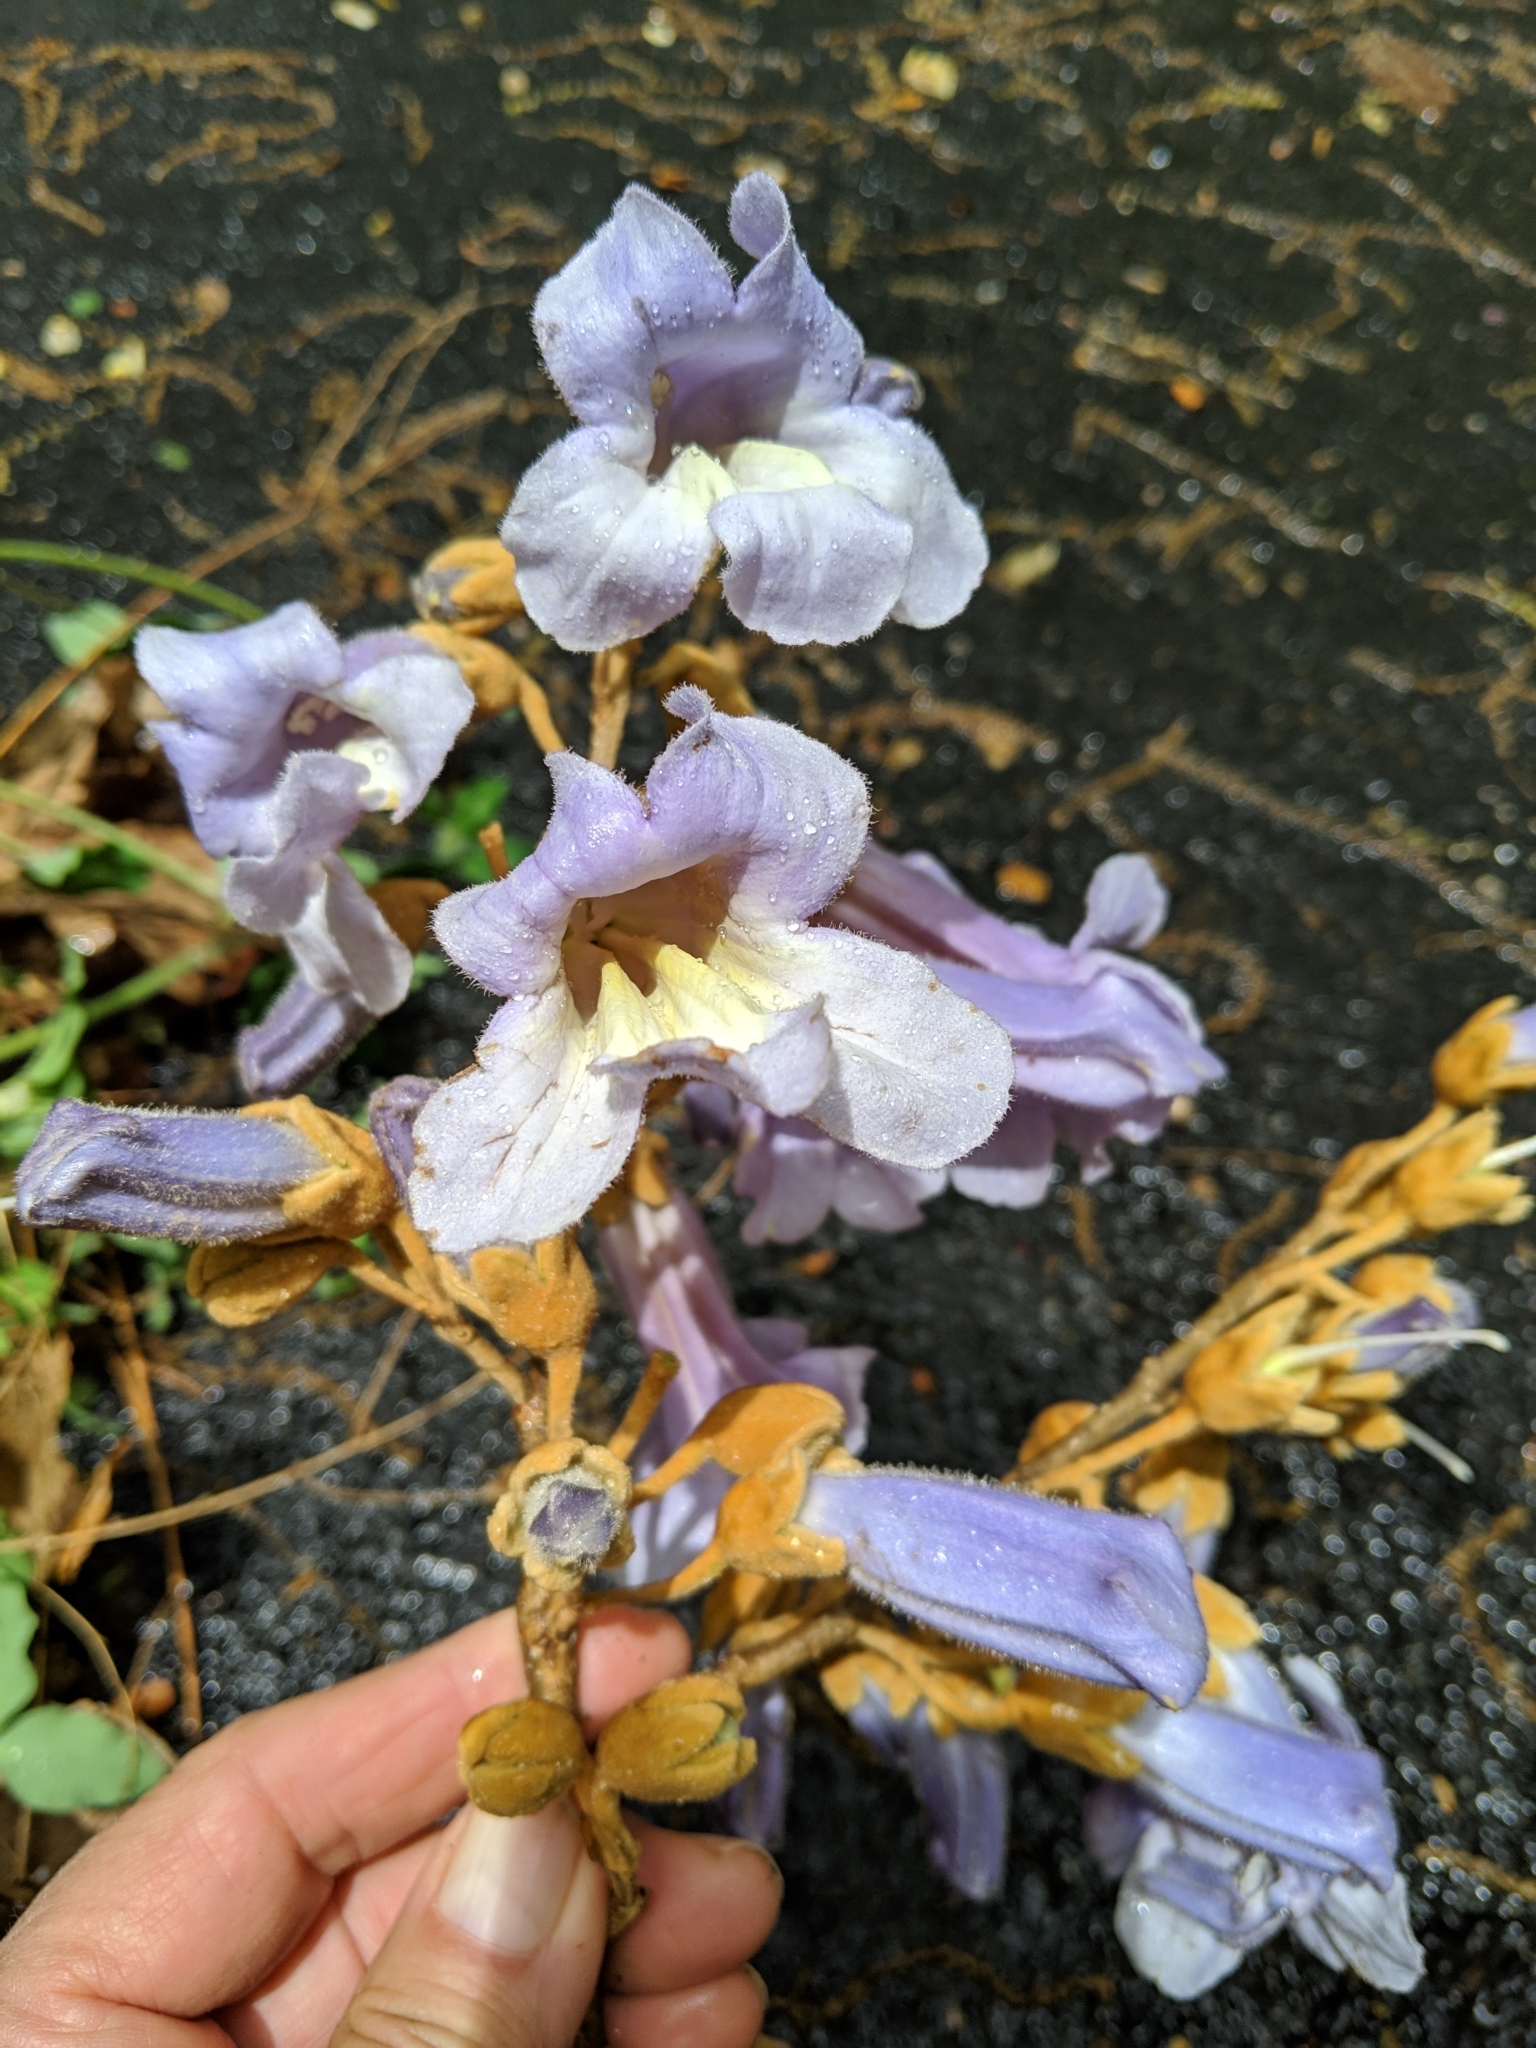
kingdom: Plantae
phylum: Tracheophyta
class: Magnoliopsida
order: Lamiales
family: Paulowniaceae
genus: Paulownia
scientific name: Paulownia tomentosa
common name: Foxglove-tree
